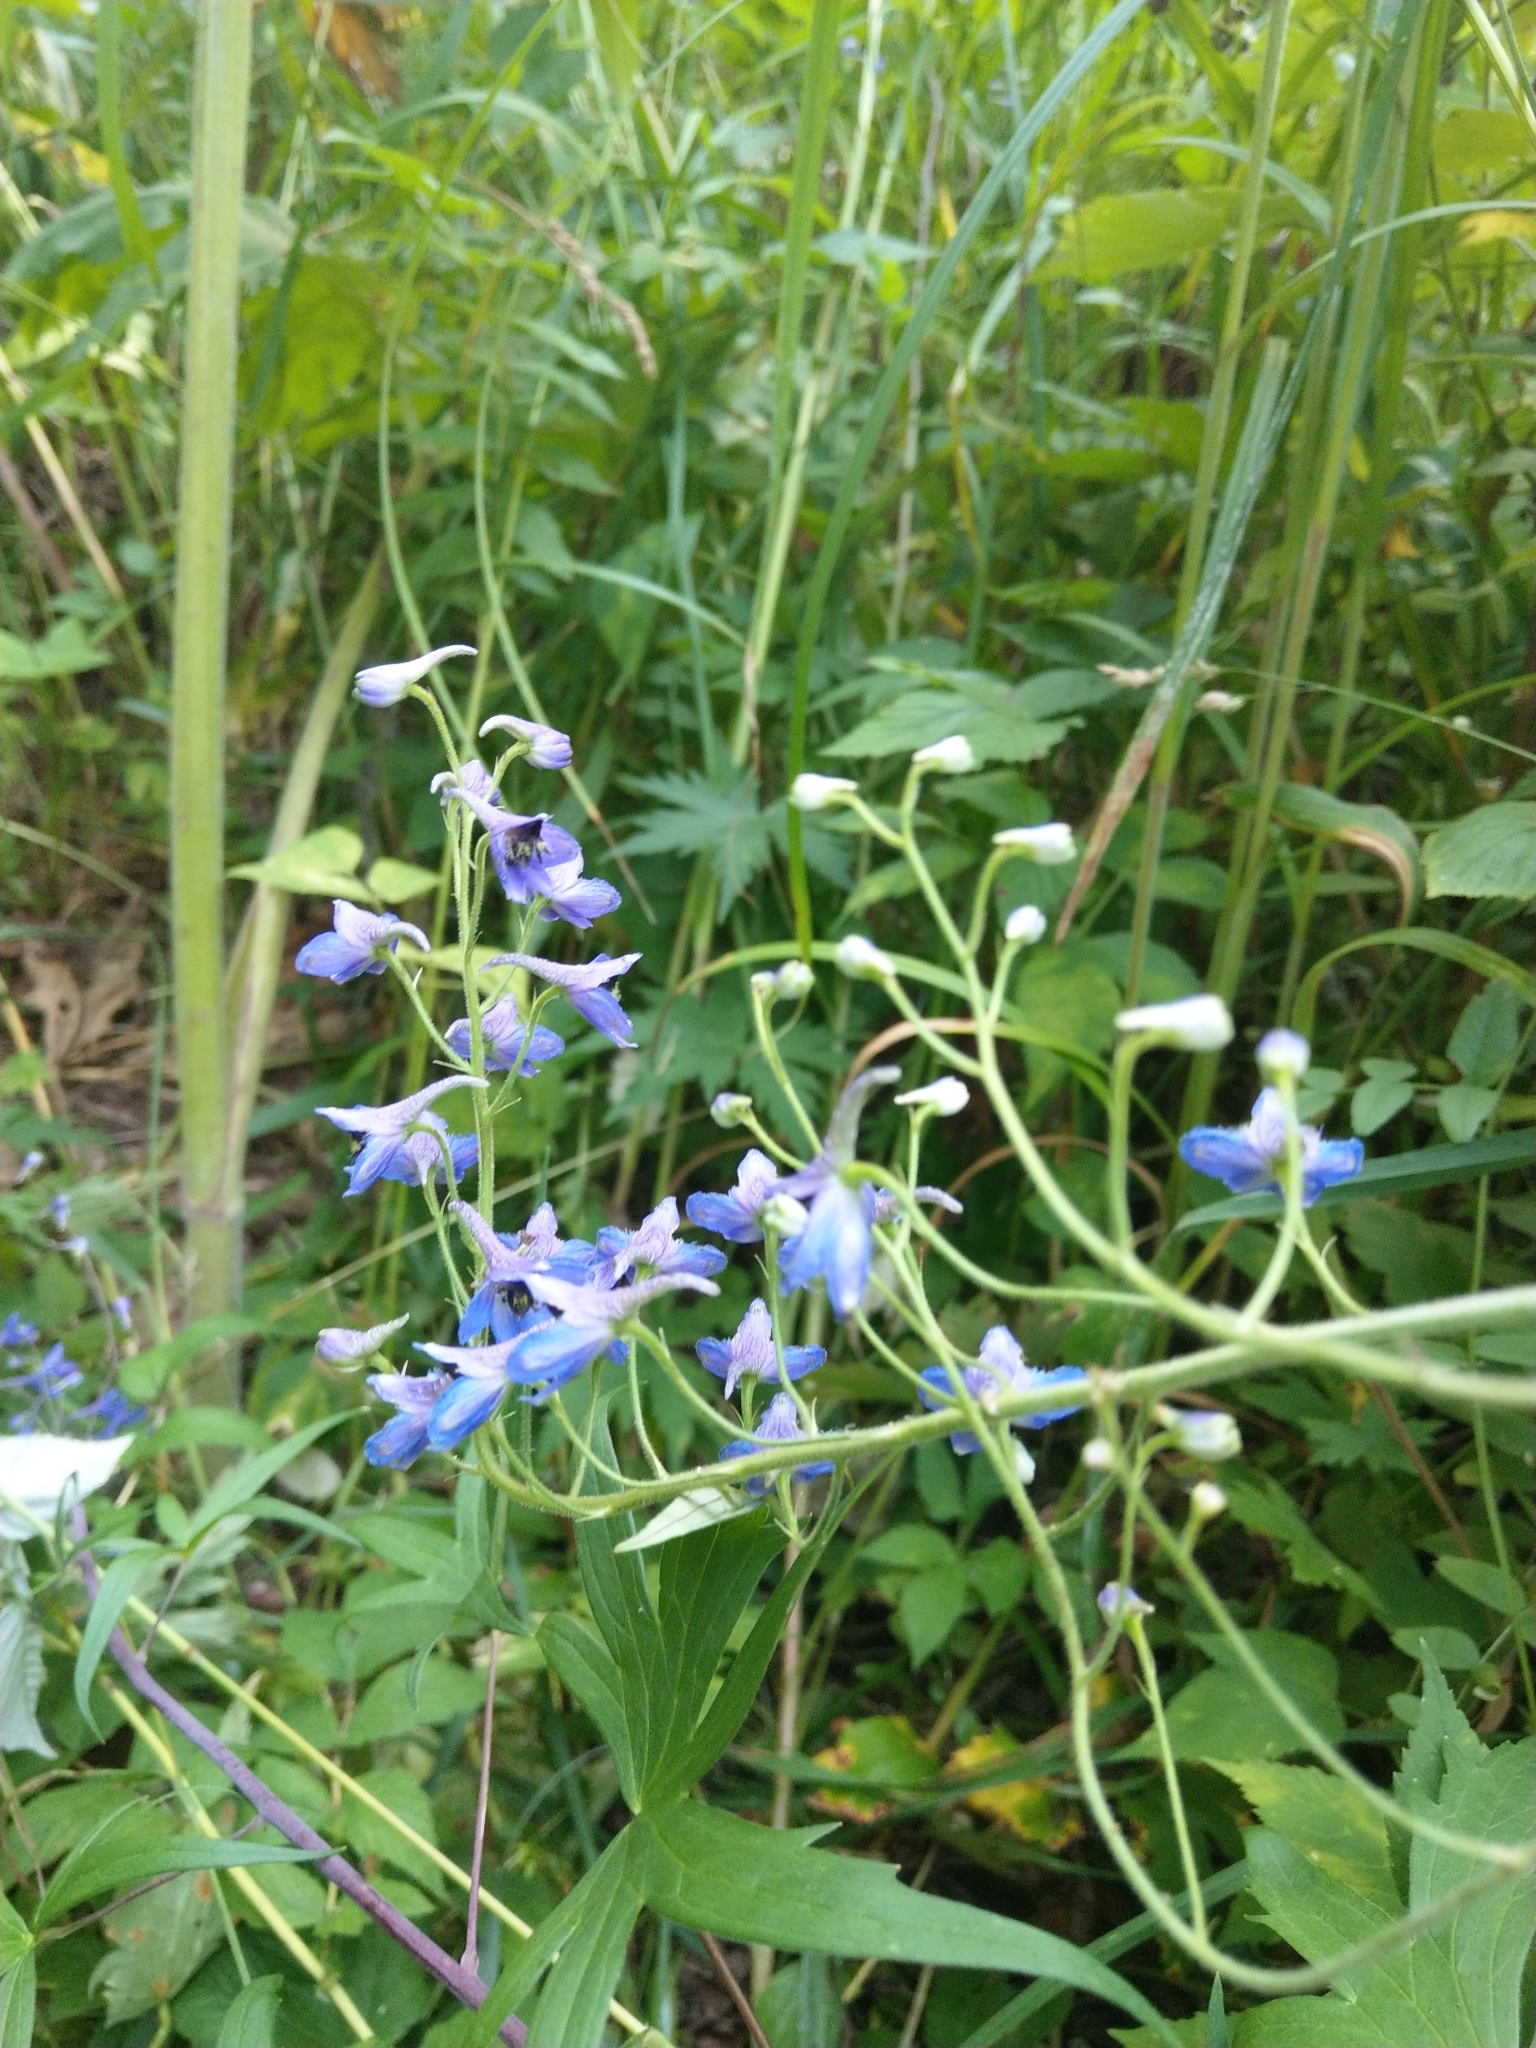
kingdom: Plantae
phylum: Tracheophyta
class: Magnoliopsida
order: Ranunculales
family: Ranunculaceae
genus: Delphinium
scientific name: Delphinium retropilosum
